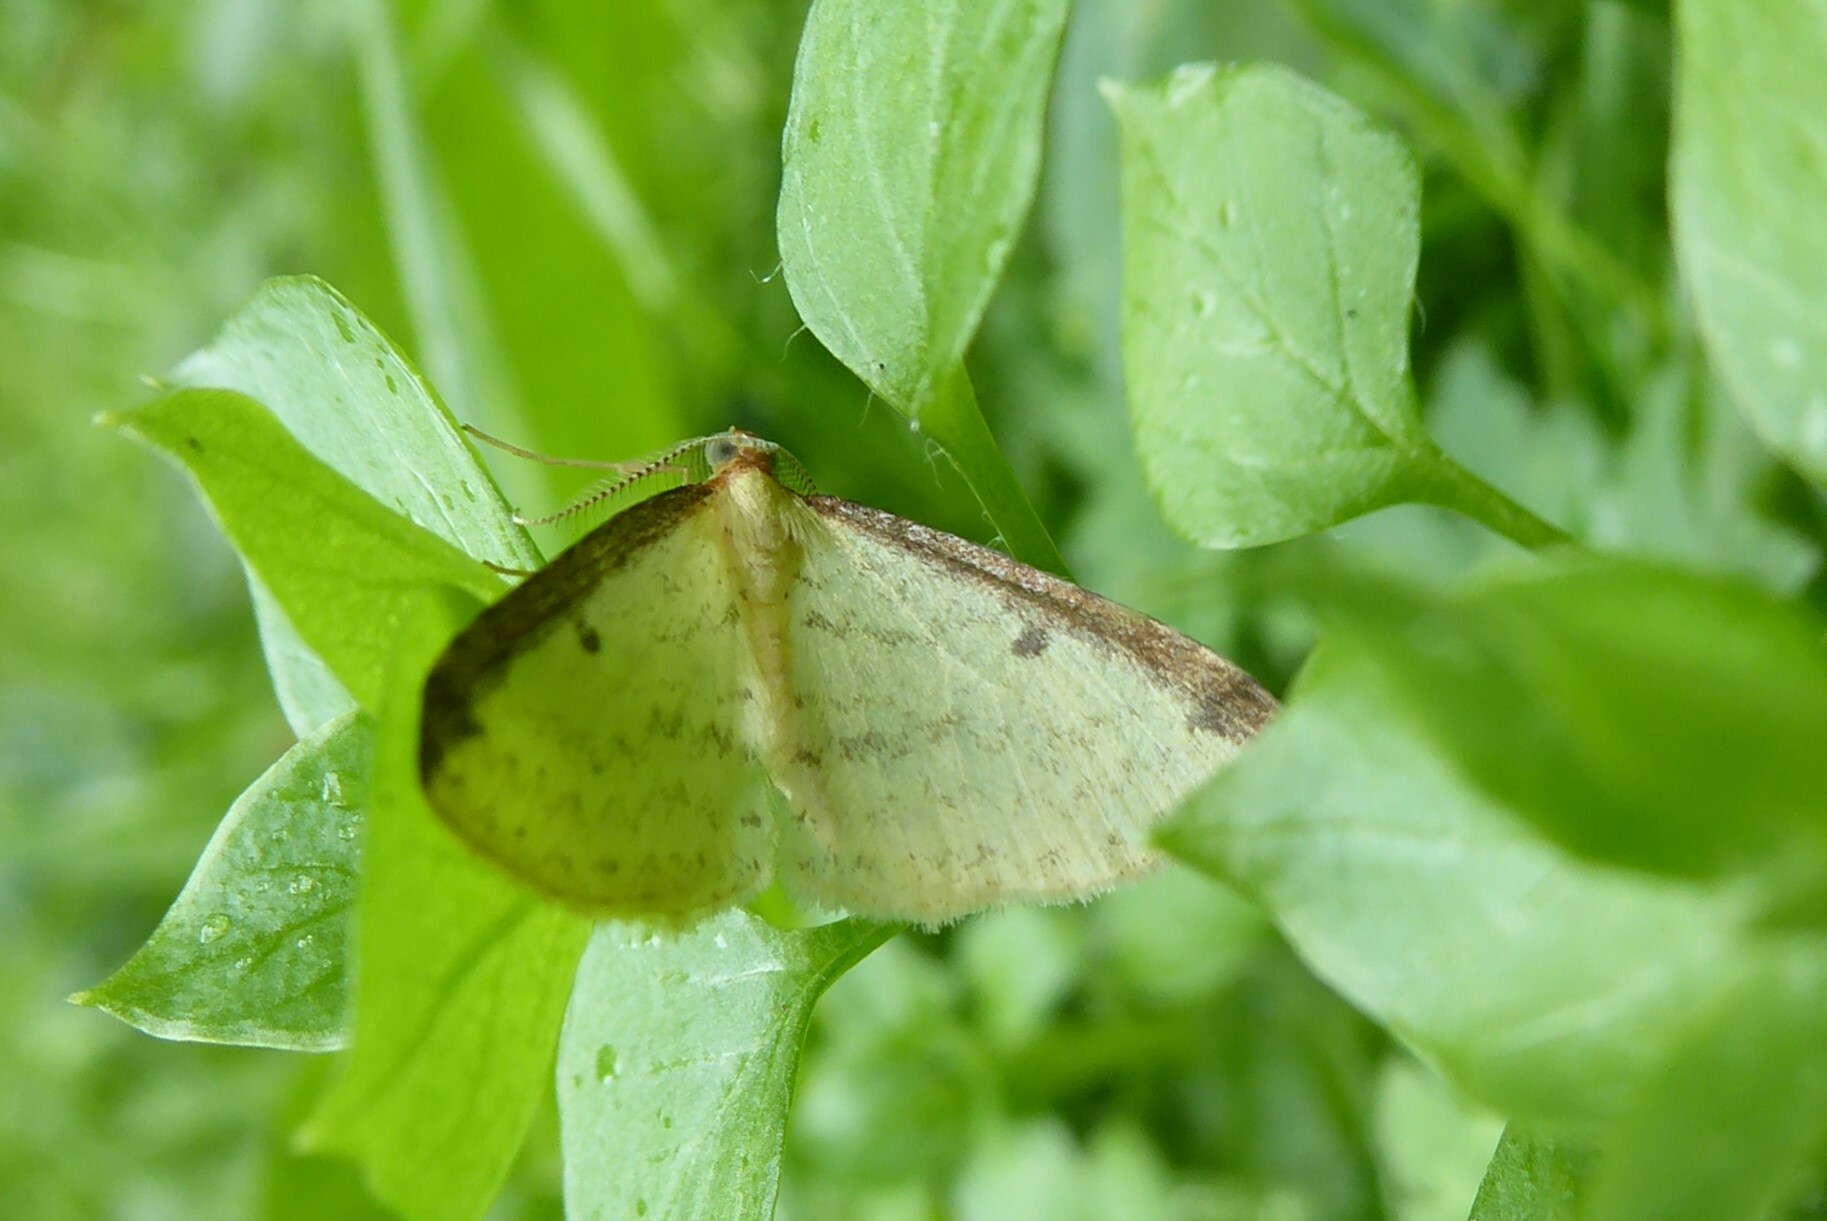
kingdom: Animalia
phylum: Arthropoda
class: Insecta
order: Lepidoptera
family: Geometridae
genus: Epiphryne
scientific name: Epiphryne undosata
